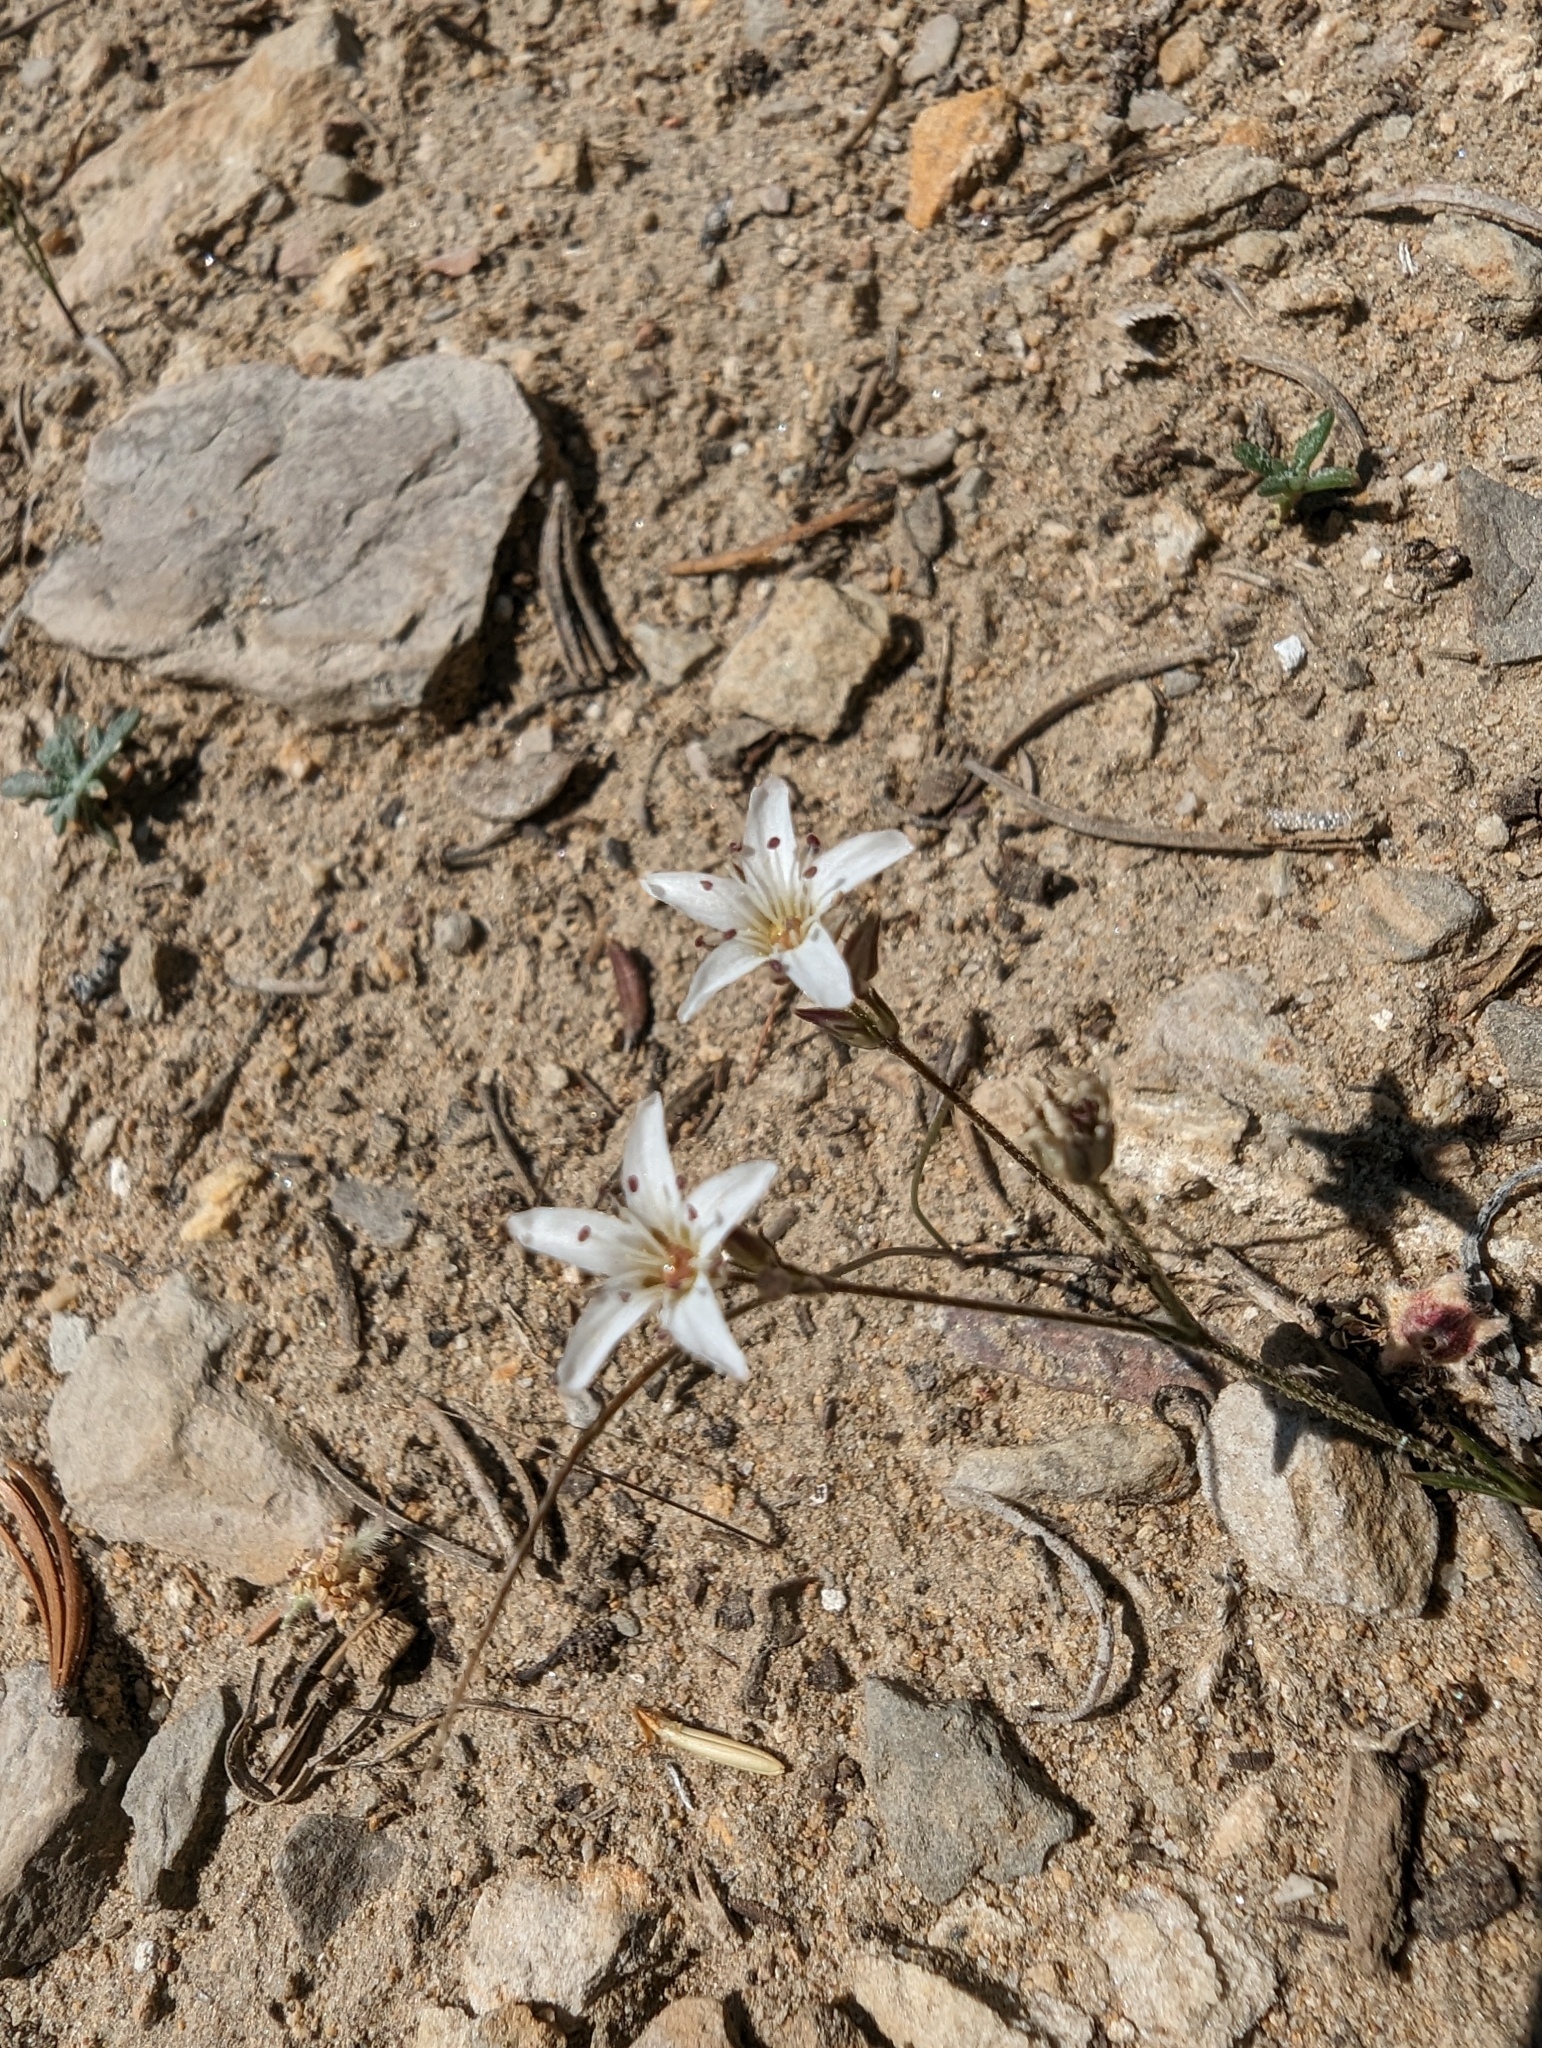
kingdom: Plantae
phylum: Tracheophyta
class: Magnoliopsida
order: Caryophyllales
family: Caryophyllaceae
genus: Eremogone
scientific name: Eremogone kingii
